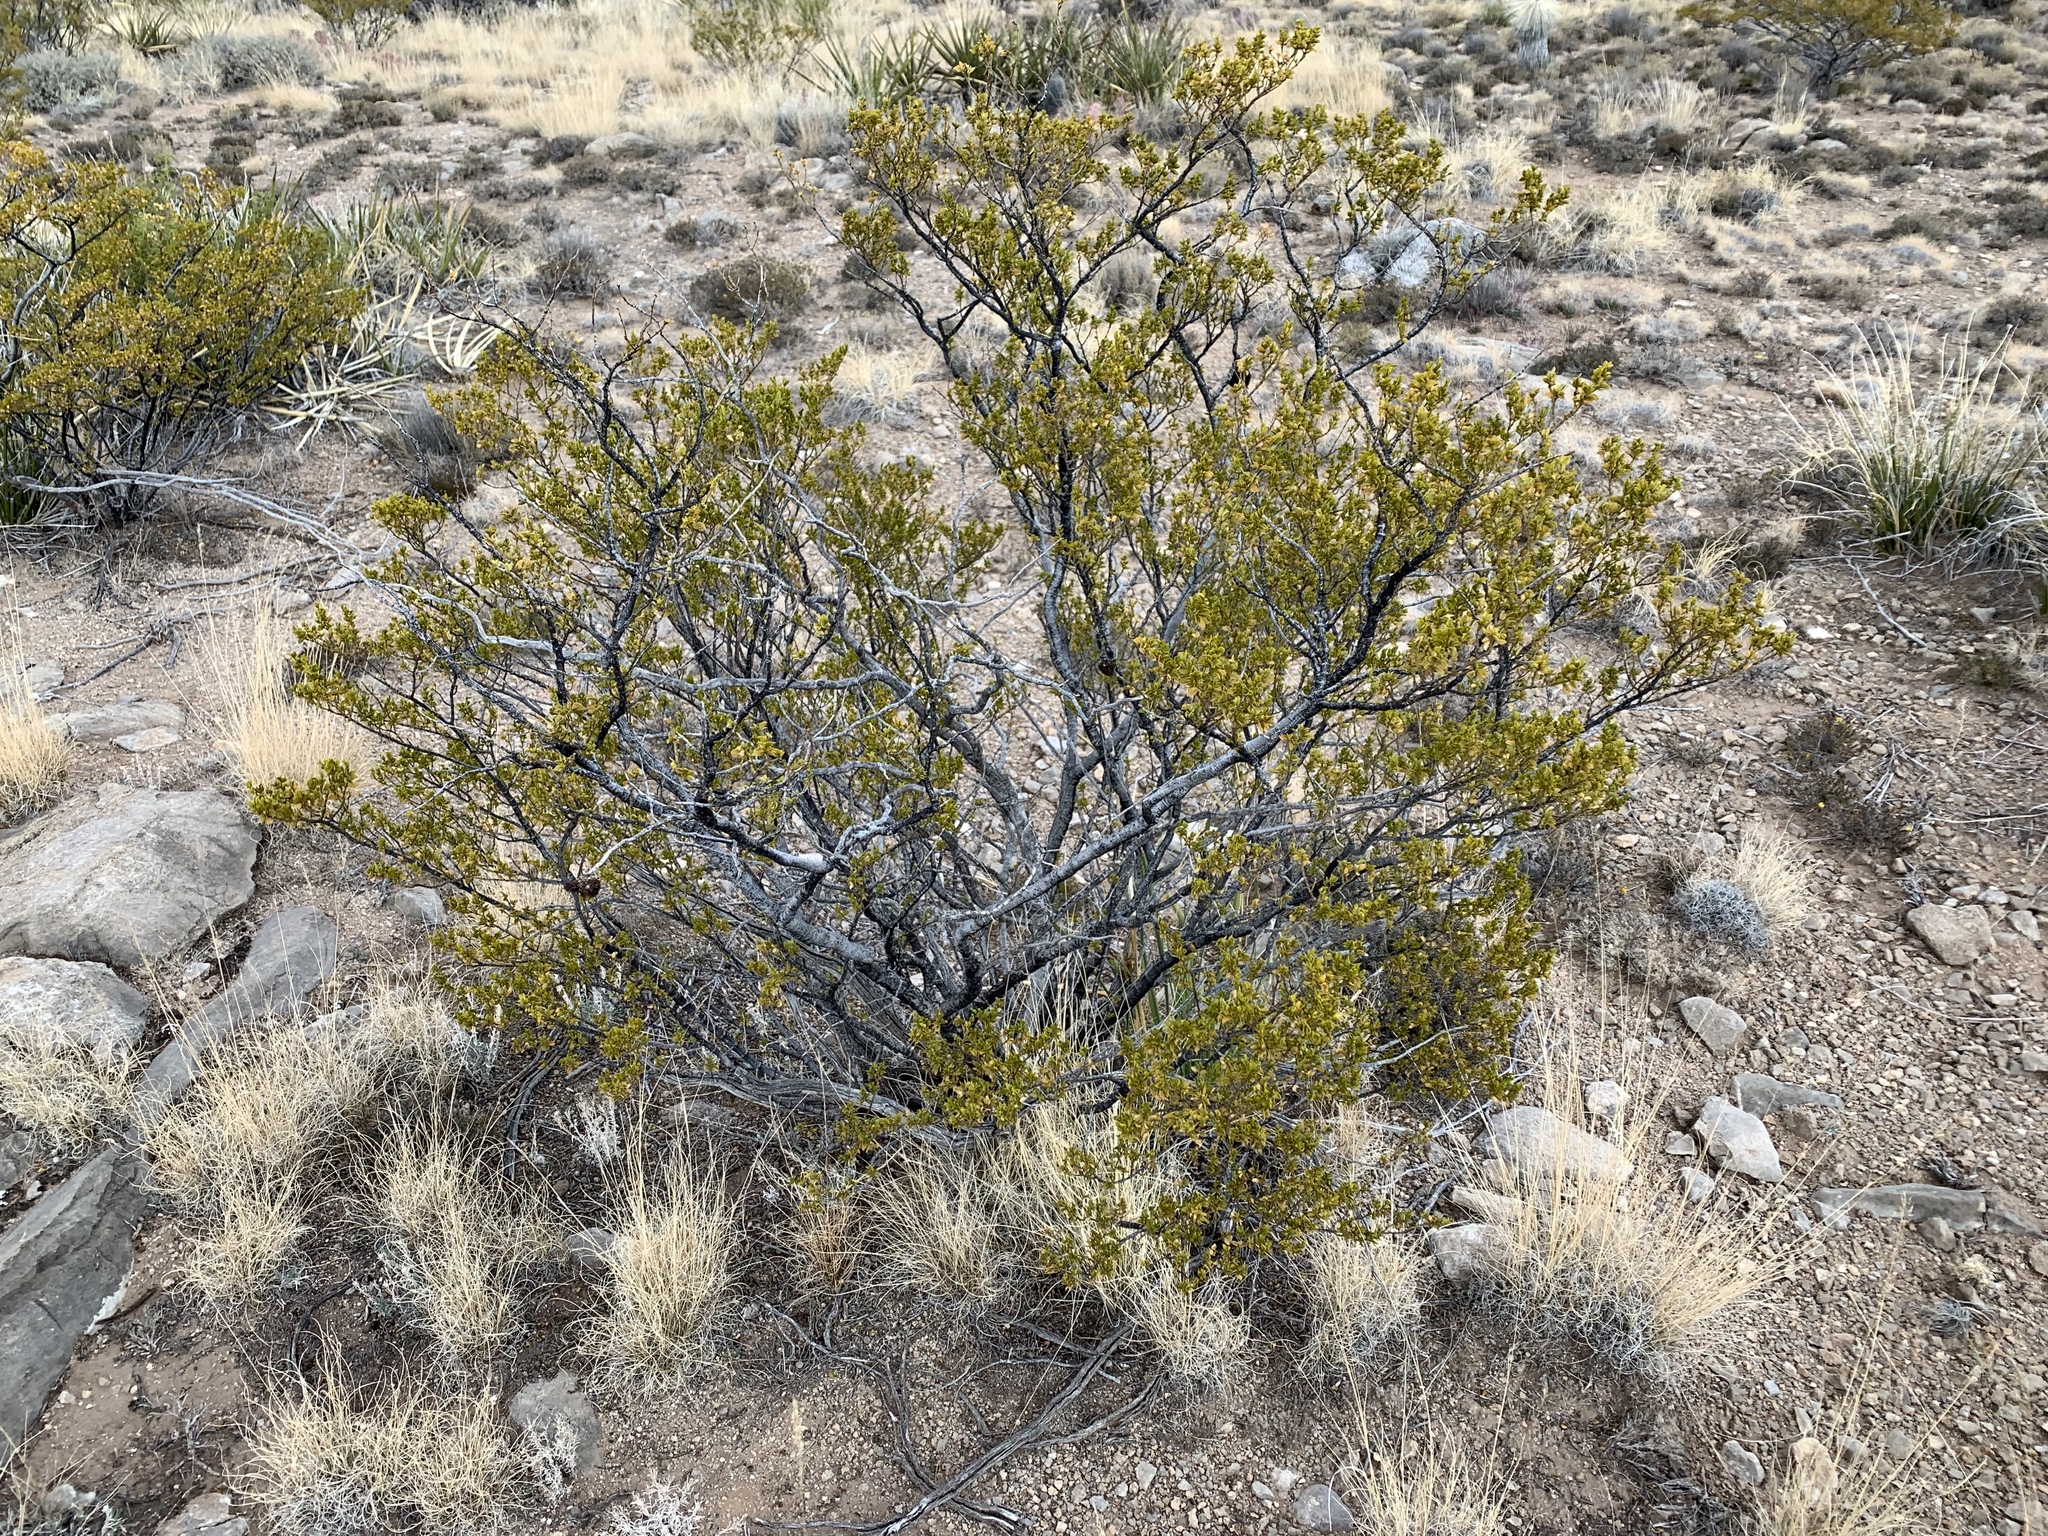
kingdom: Plantae
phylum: Tracheophyta
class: Magnoliopsida
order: Zygophyllales
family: Zygophyllaceae
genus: Larrea
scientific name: Larrea tridentata
